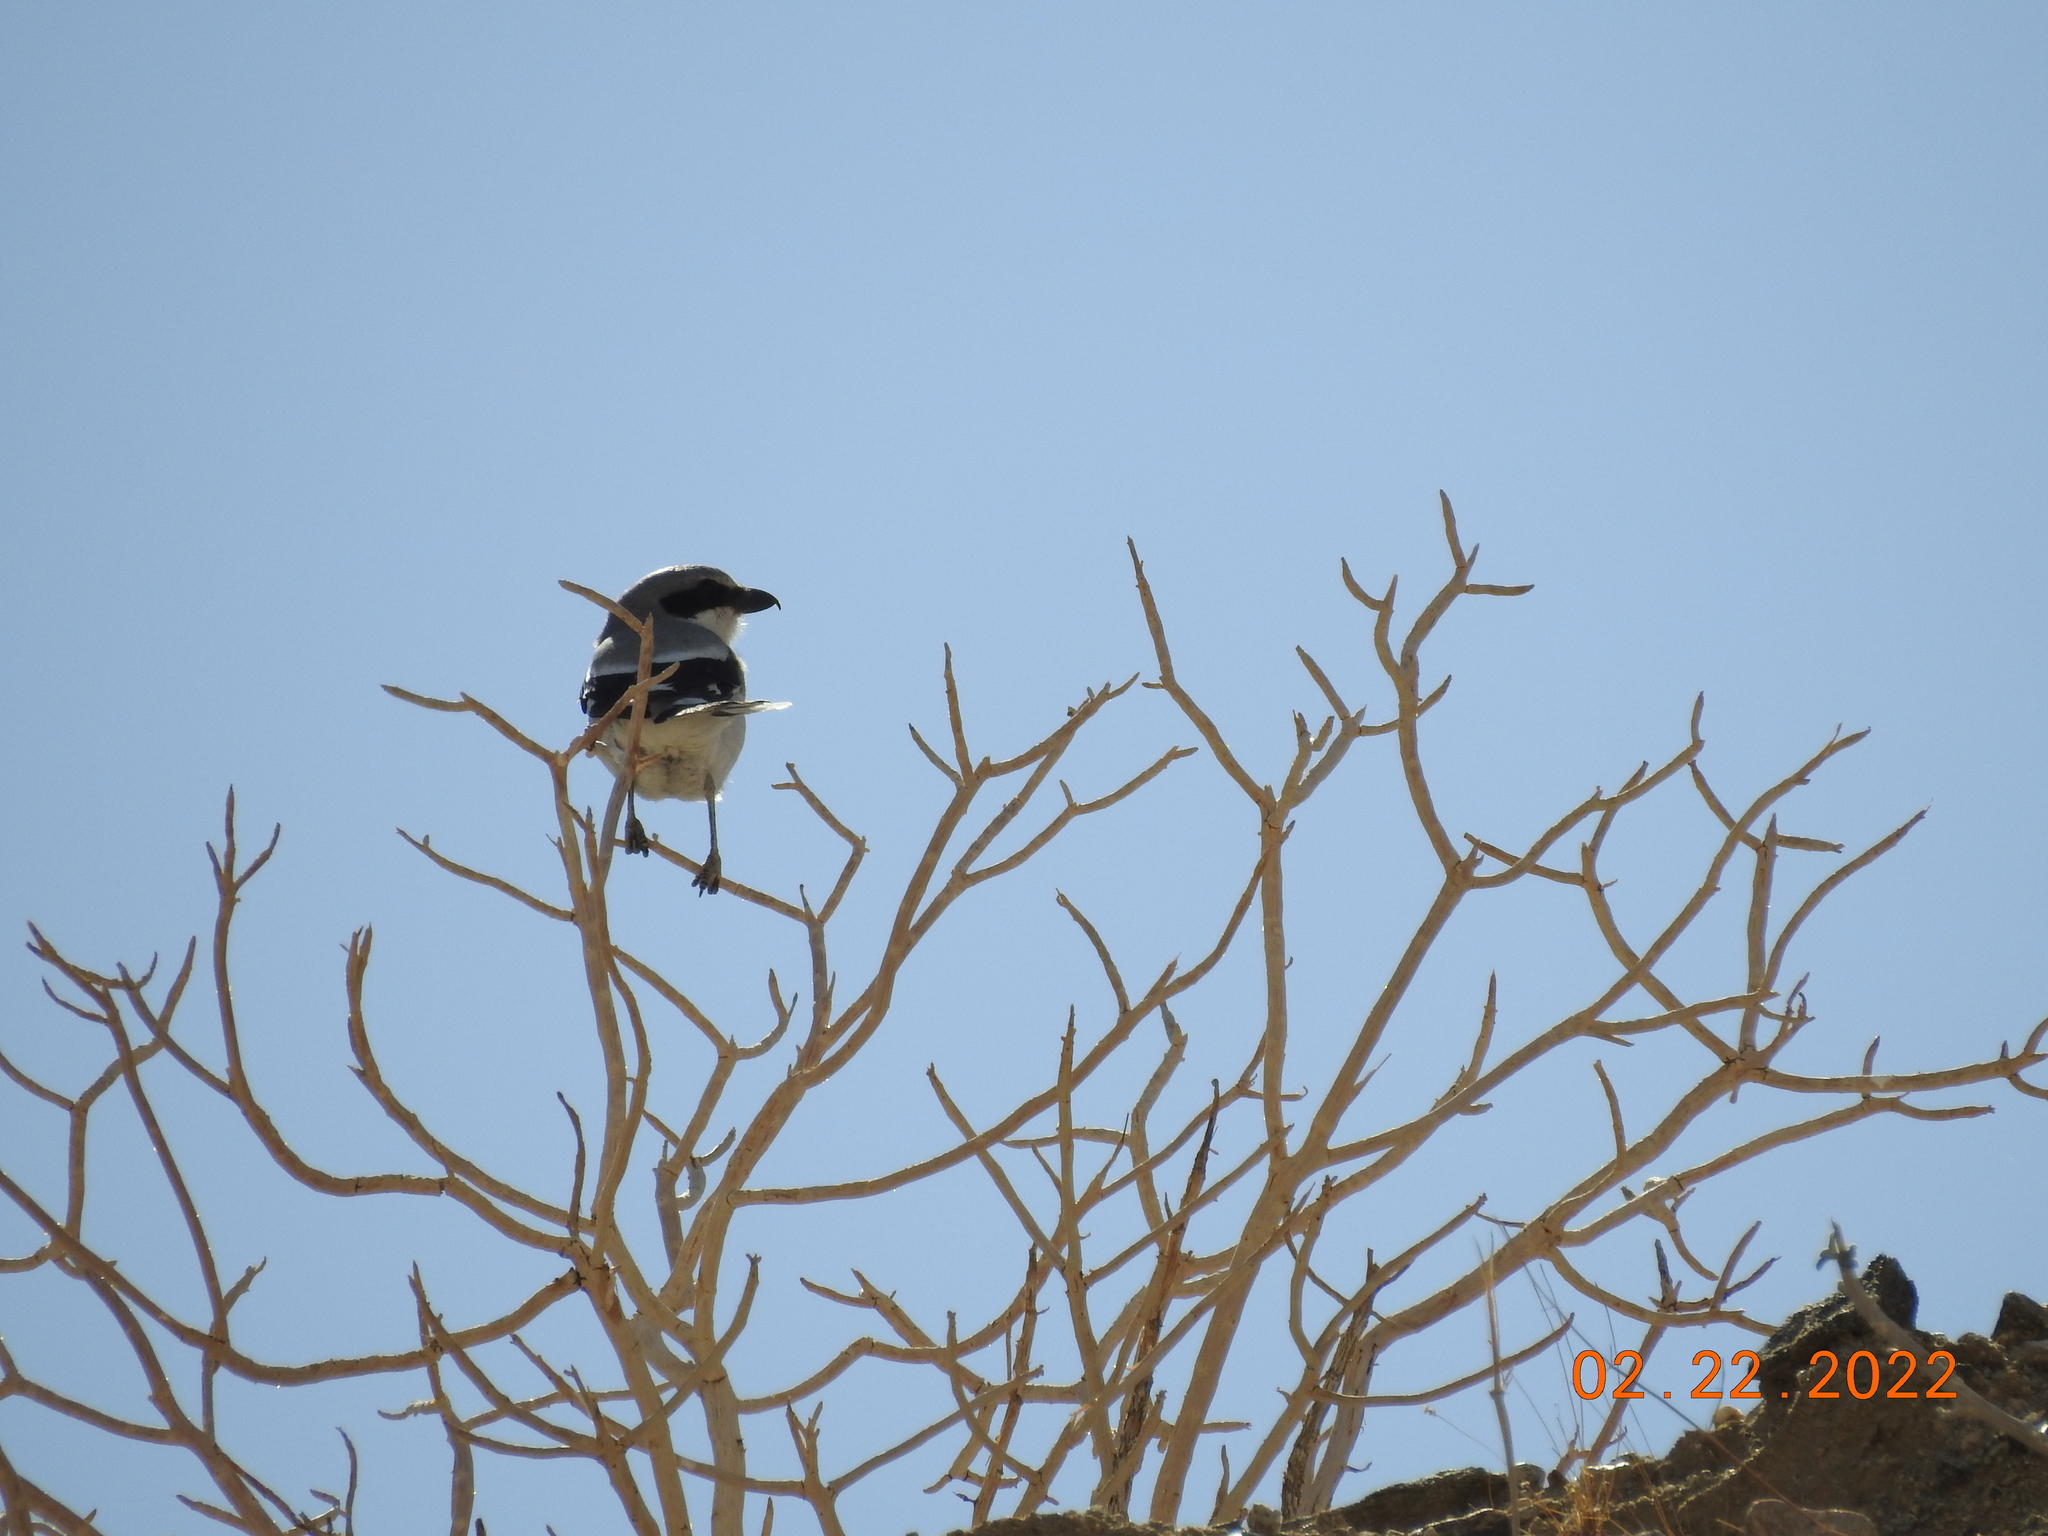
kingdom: Animalia
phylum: Chordata
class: Aves
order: Passeriformes
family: Laniidae
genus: Lanius
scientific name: Lanius ludovicianus
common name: Loggerhead shrike
